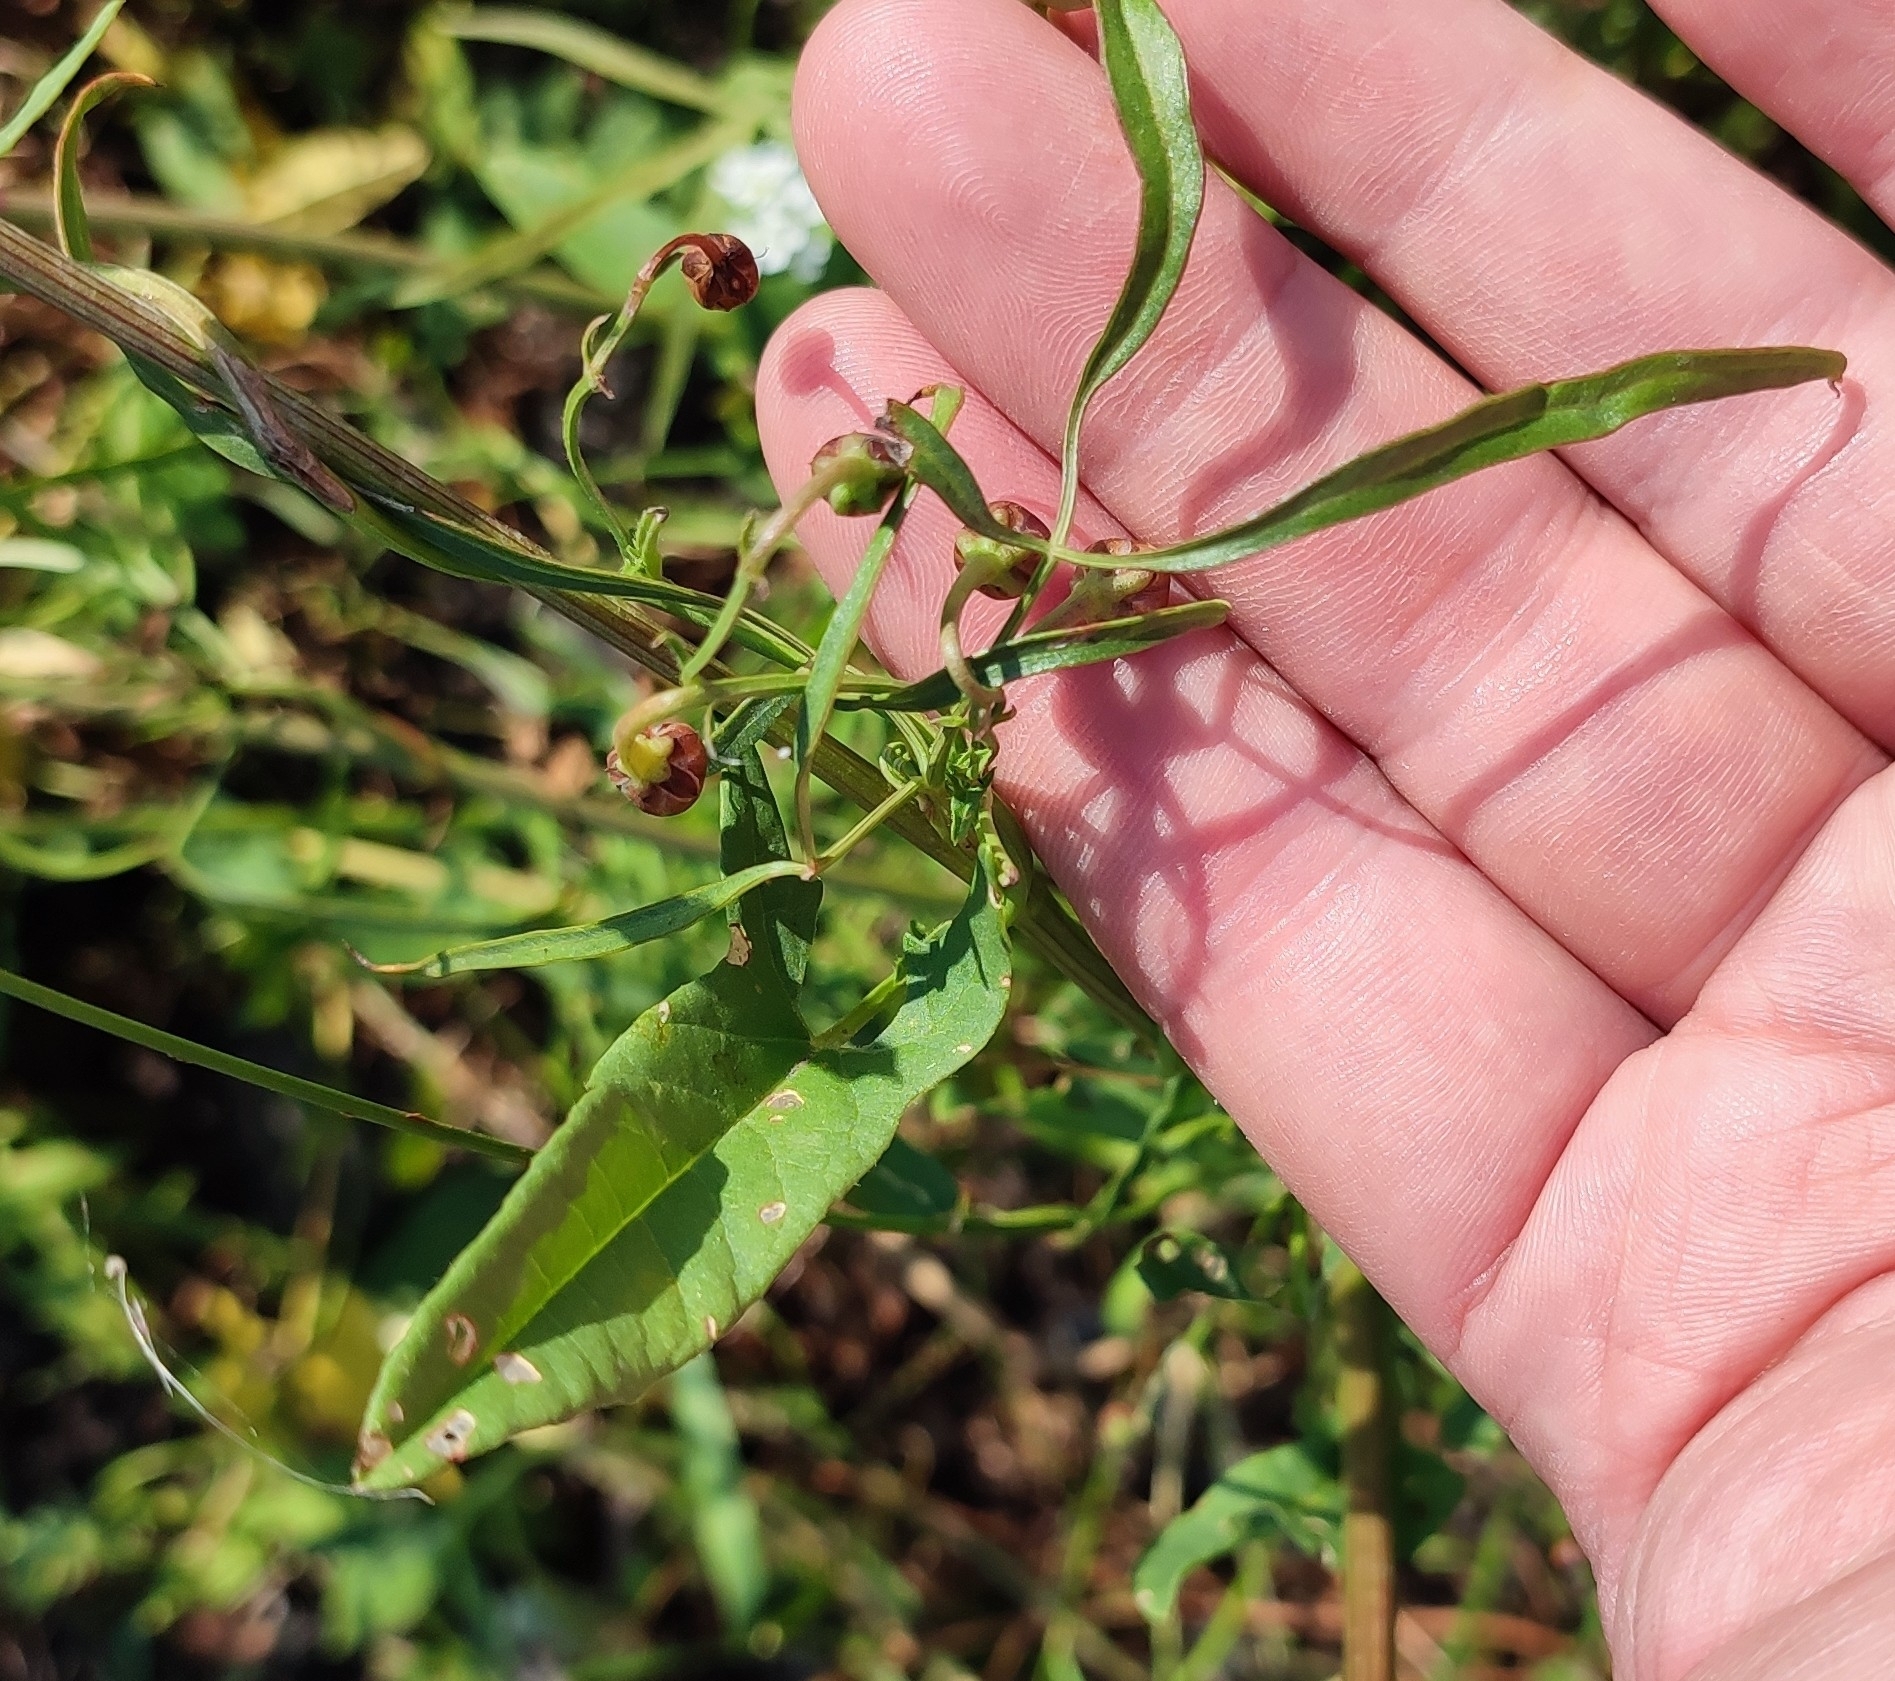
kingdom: Plantae
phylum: Tracheophyta
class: Magnoliopsida
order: Solanales
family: Convolvulaceae
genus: Convolvulus
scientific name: Convolvulus arvensis
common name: Field bindweed
